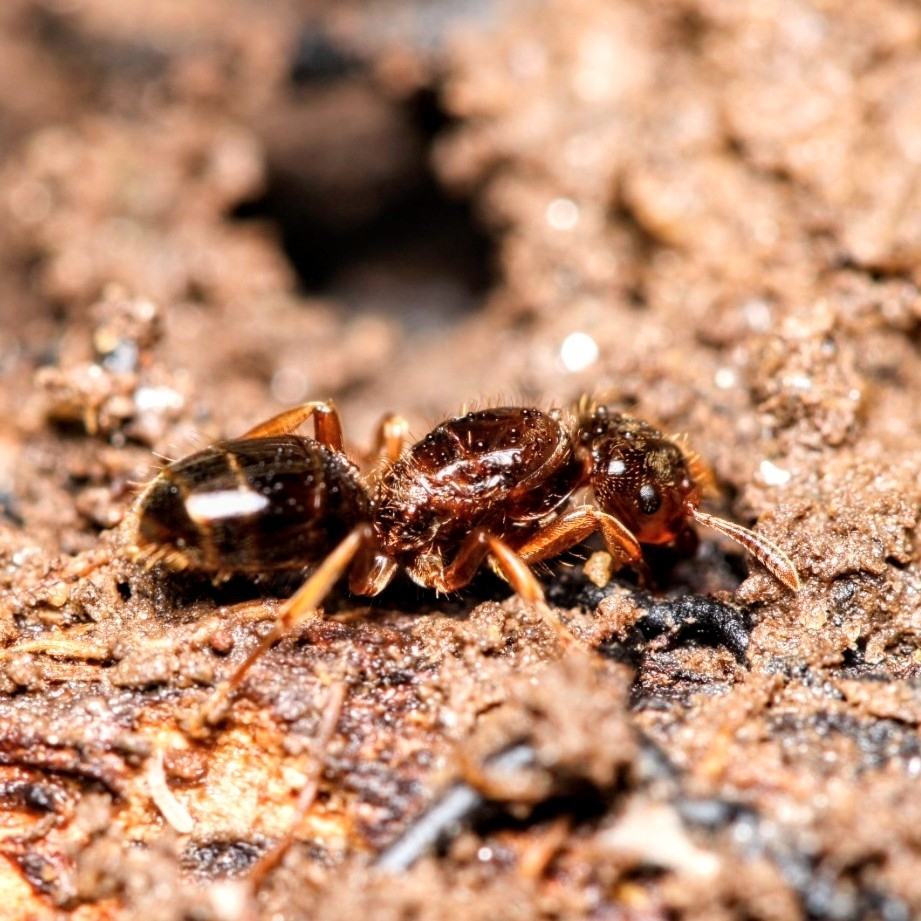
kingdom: Animalia
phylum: Arthropoda
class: Insecta
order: Hymenoptera
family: Formicidae
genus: Lasius
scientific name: Lasius claviger
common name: Common citronella ant
